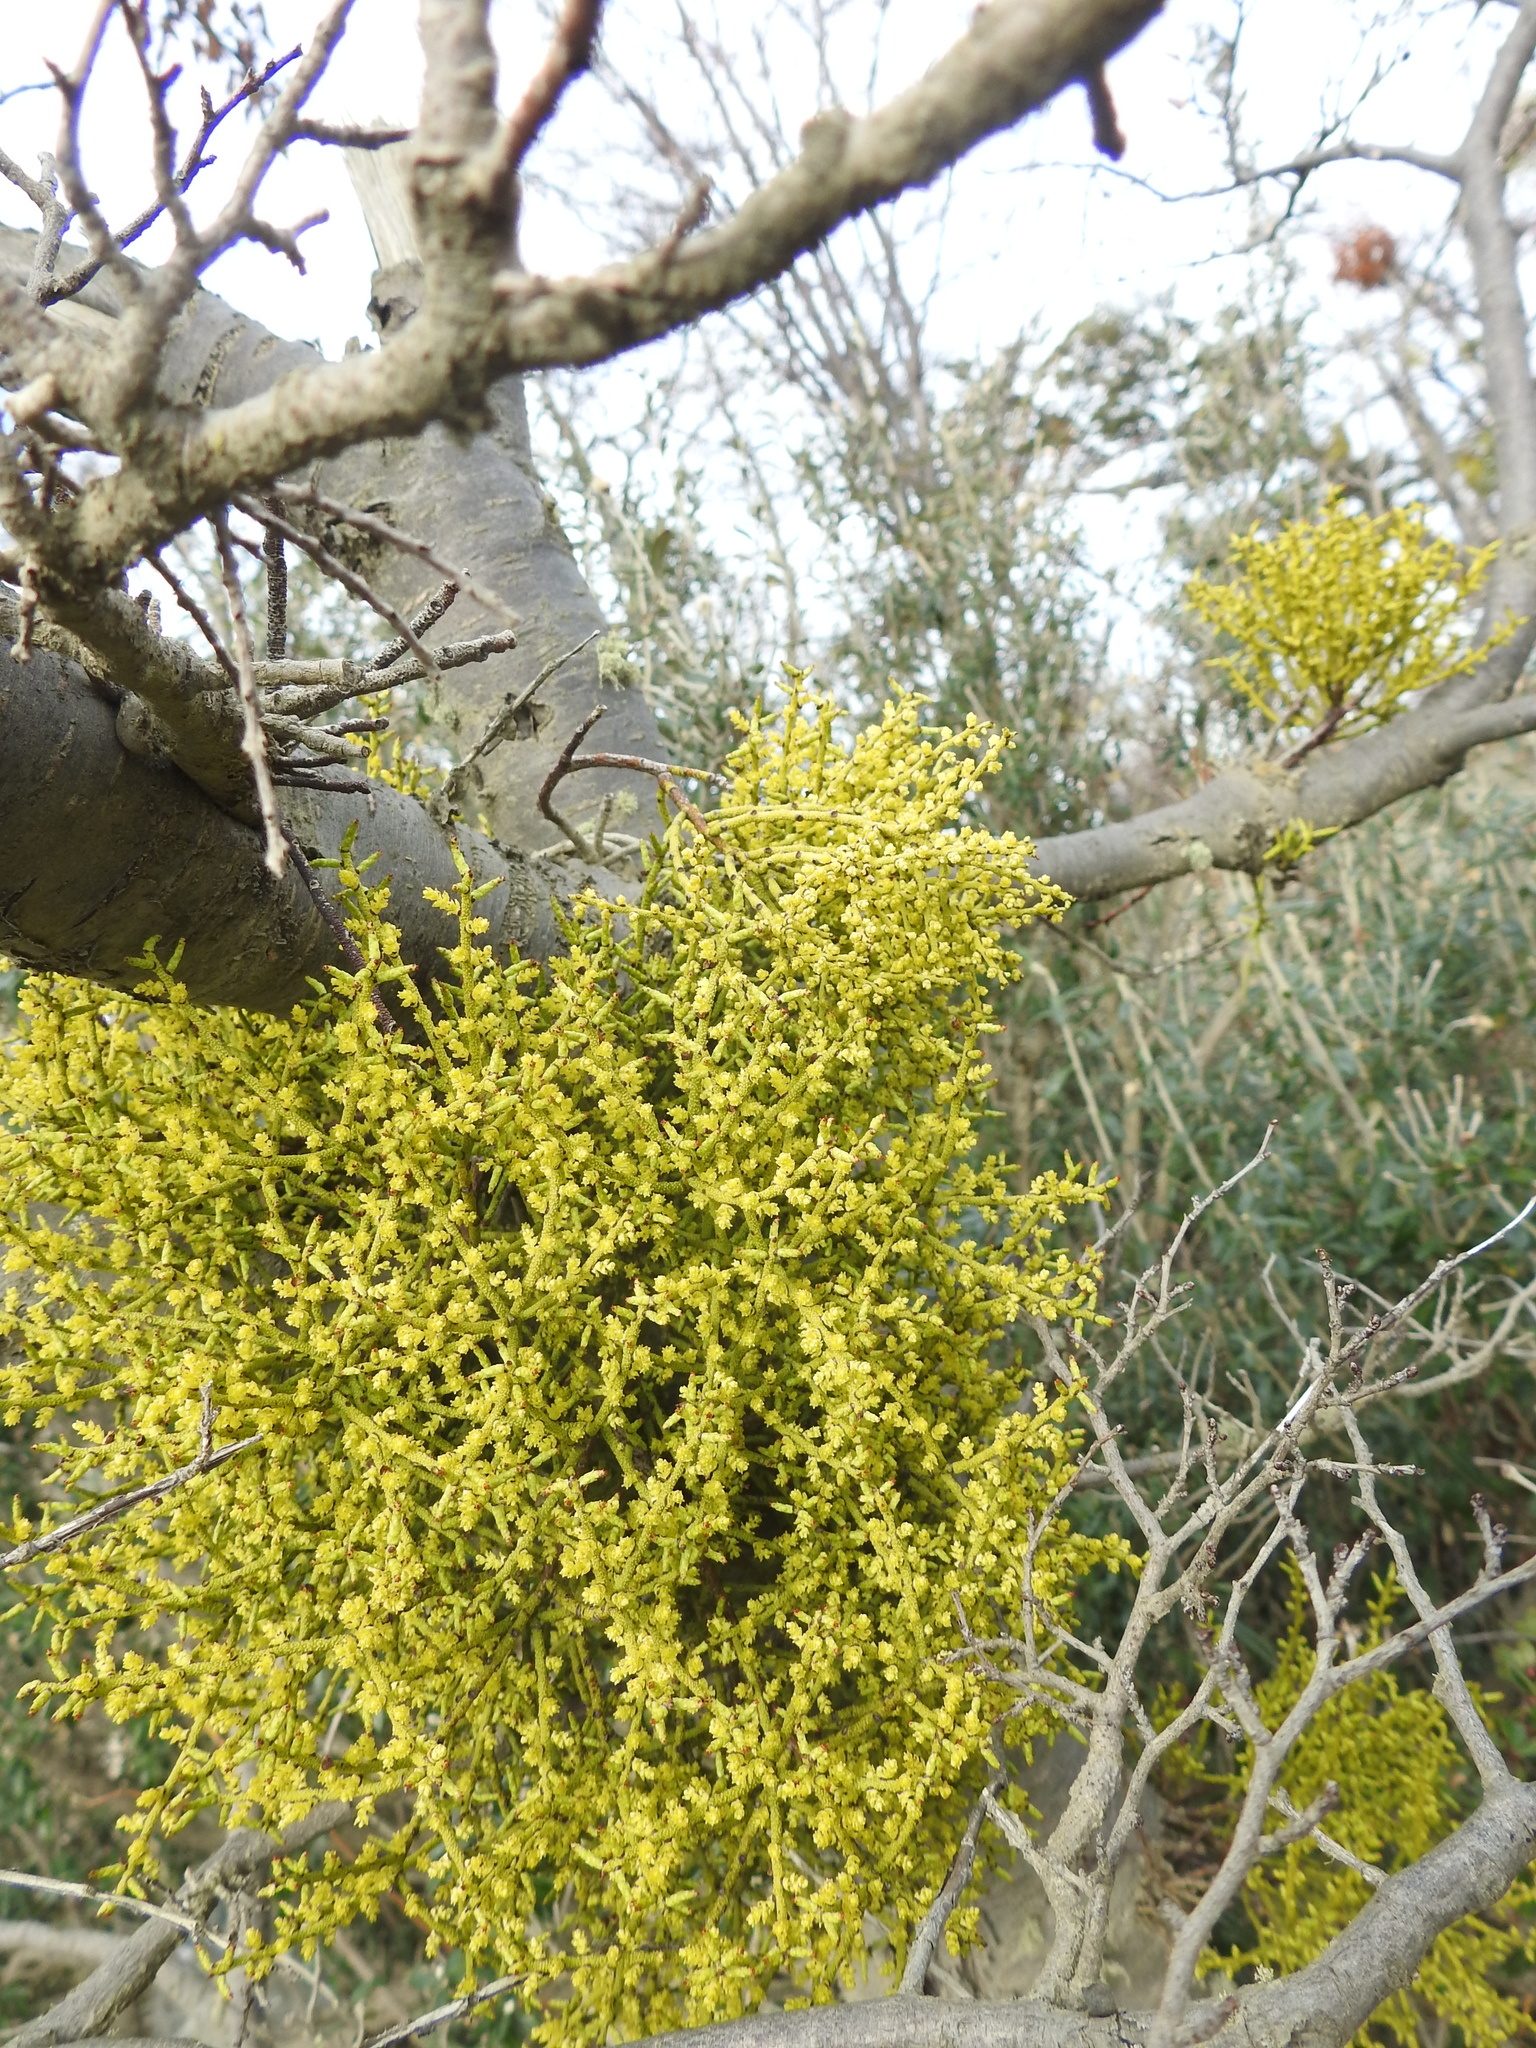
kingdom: Plantae
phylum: Tracheophyta
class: Magnoliopsida
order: Santalales
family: Misodendraceae
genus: Misodendrum
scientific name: Misodendrum punctulatum
